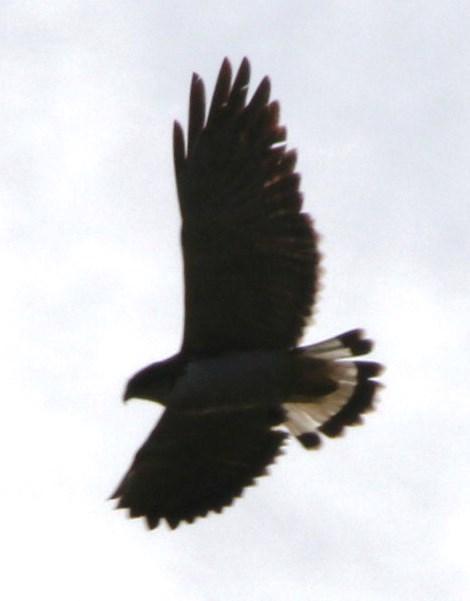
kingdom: Animalia
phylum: Chordata
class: Aves
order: Accipitriformes
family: Accipitridae
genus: Buteo
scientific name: Buteo polyosoma
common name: Variable hawk
